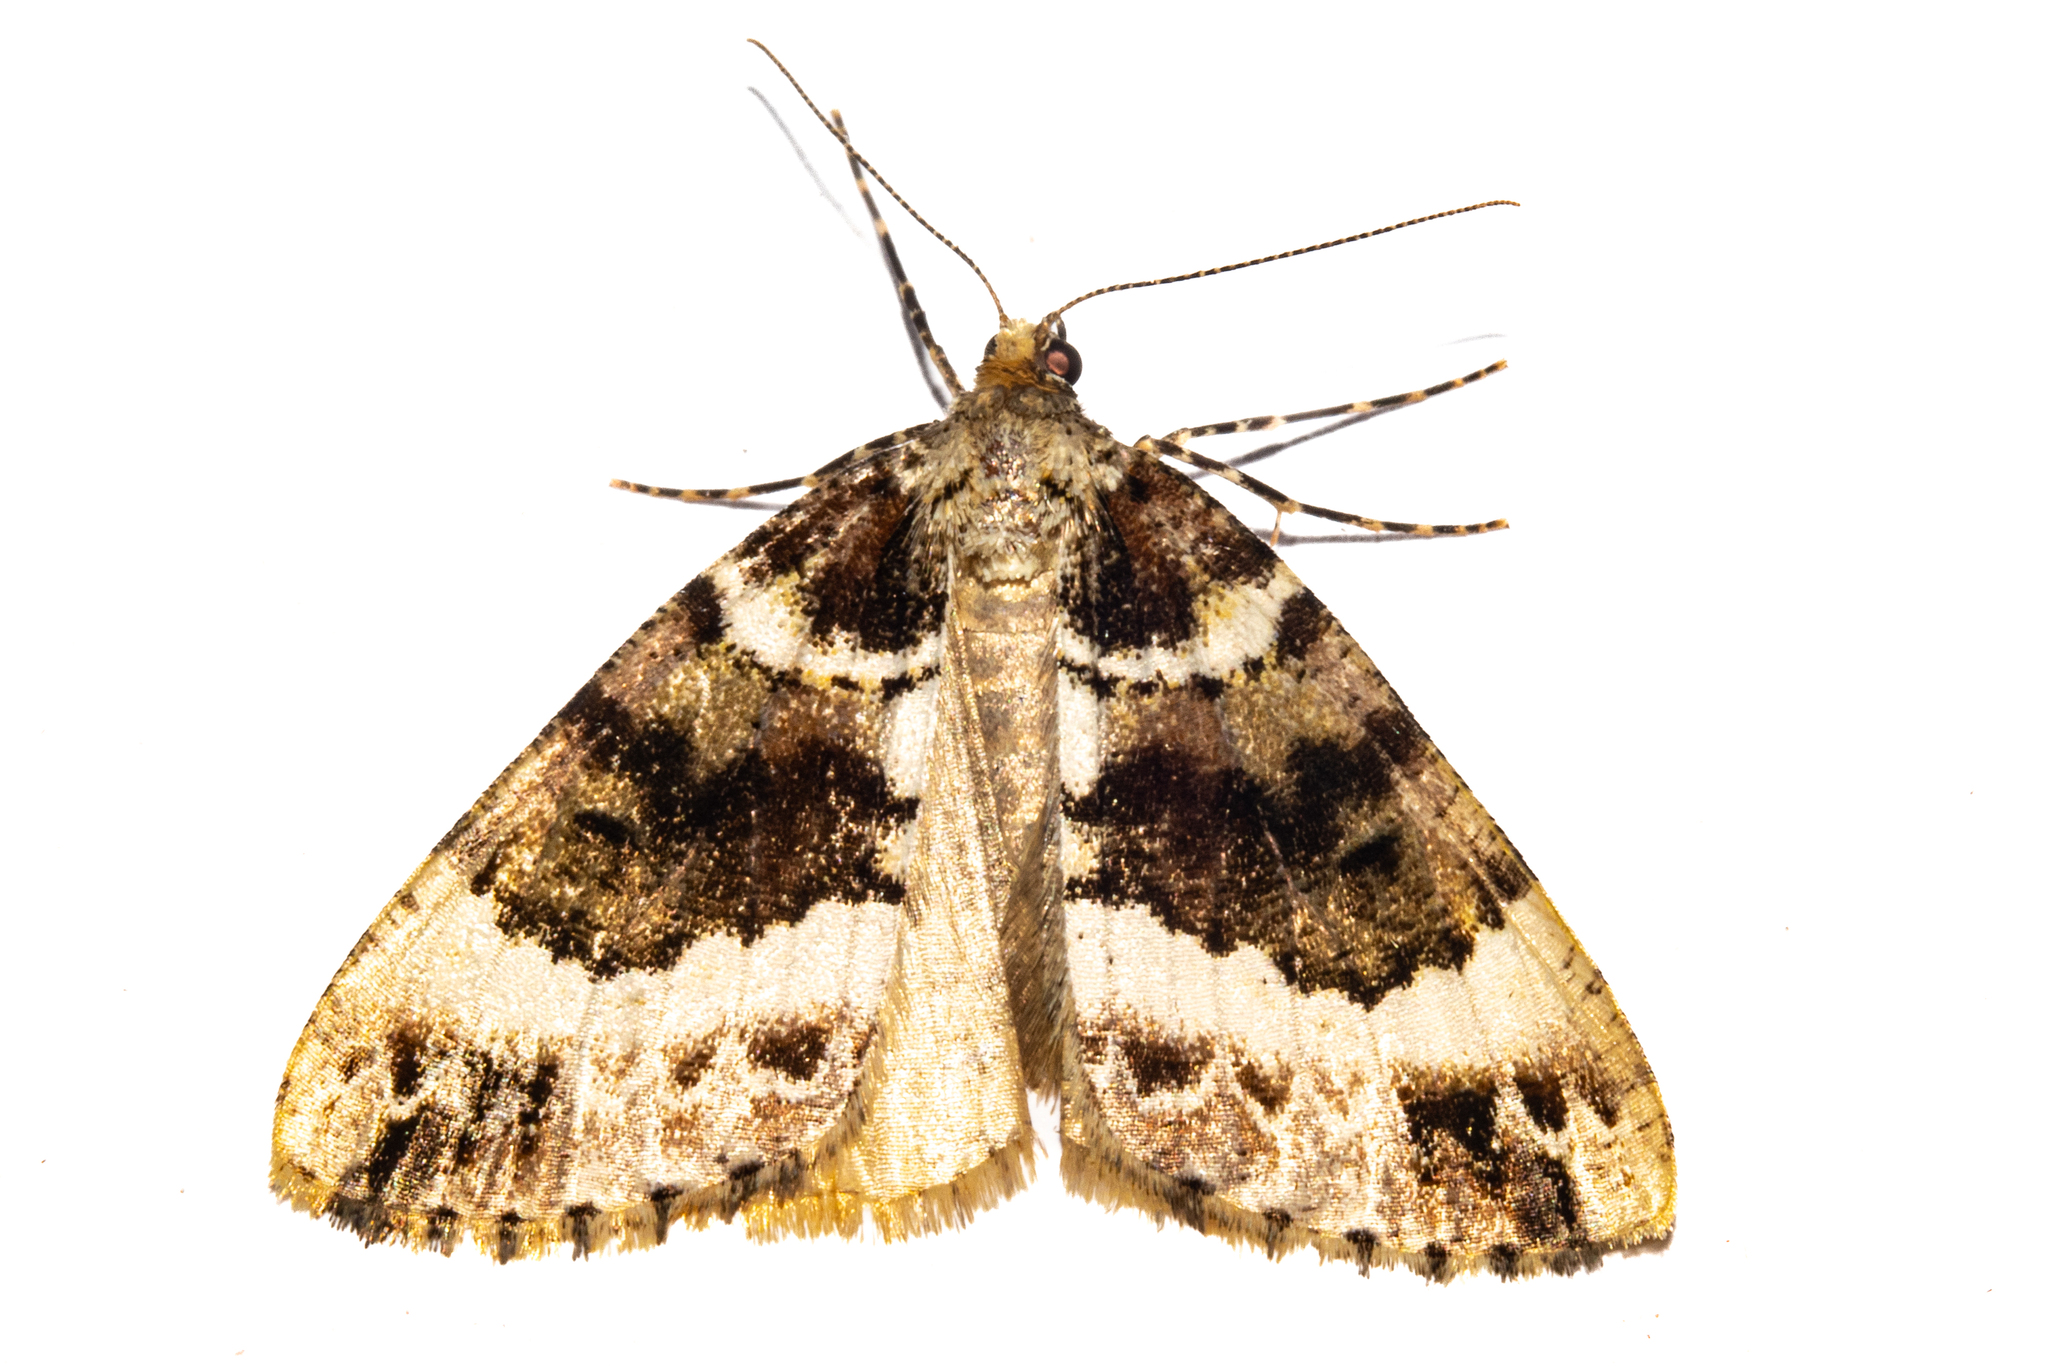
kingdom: Animalia
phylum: Arthropoda
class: Insecta
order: Lepidoptera
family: Geometridae
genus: Pseudocoremia
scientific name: Pseudocoremia productata
